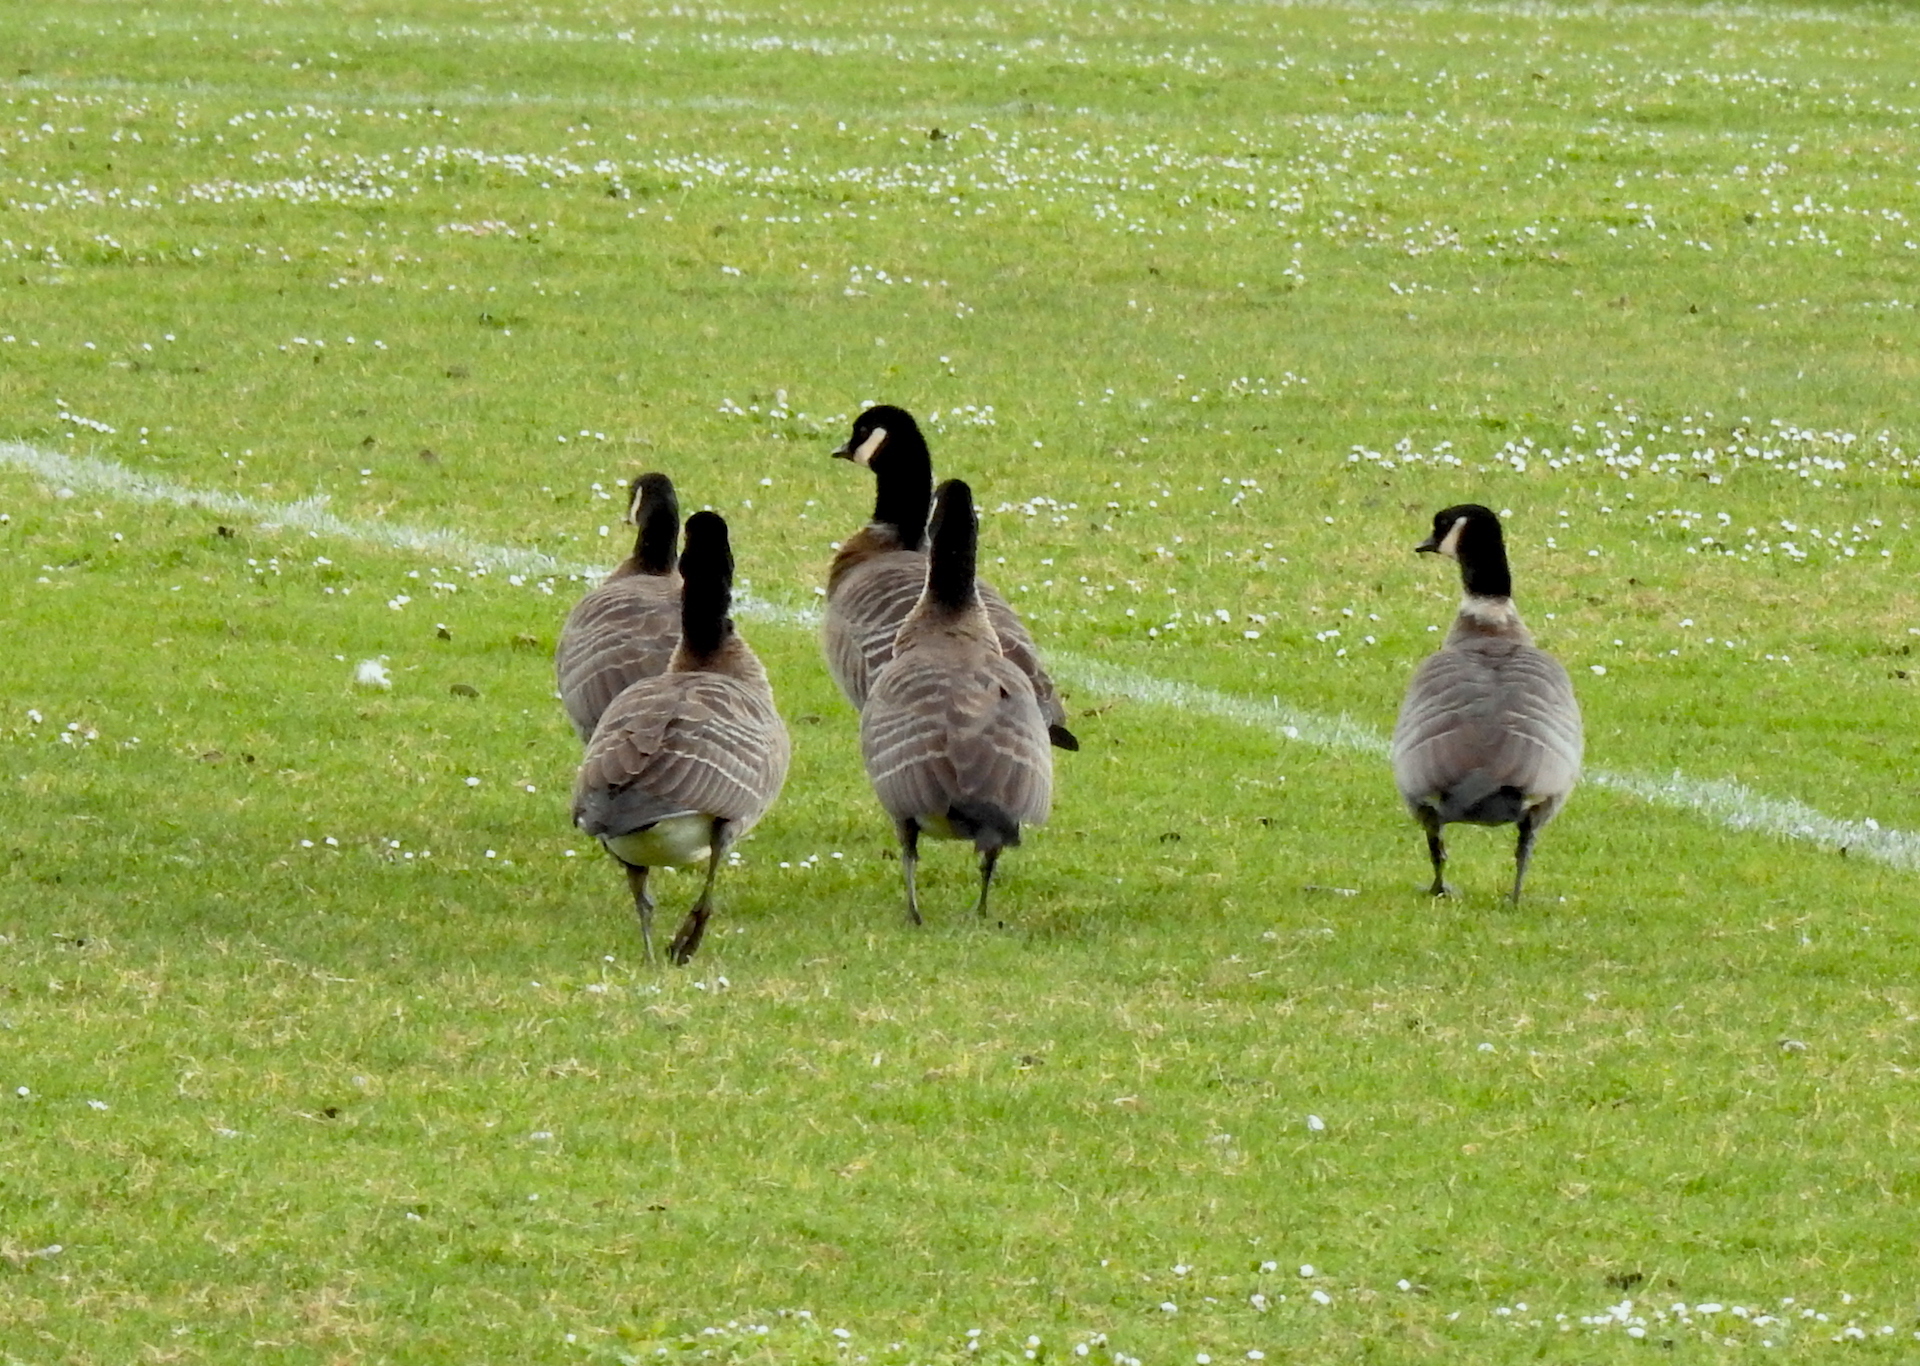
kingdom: Animalia
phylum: Chordata
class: Aves
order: Anseriformes
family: Anatidae
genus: Branta
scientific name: Branta hutchinsii
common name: Cackling goose
